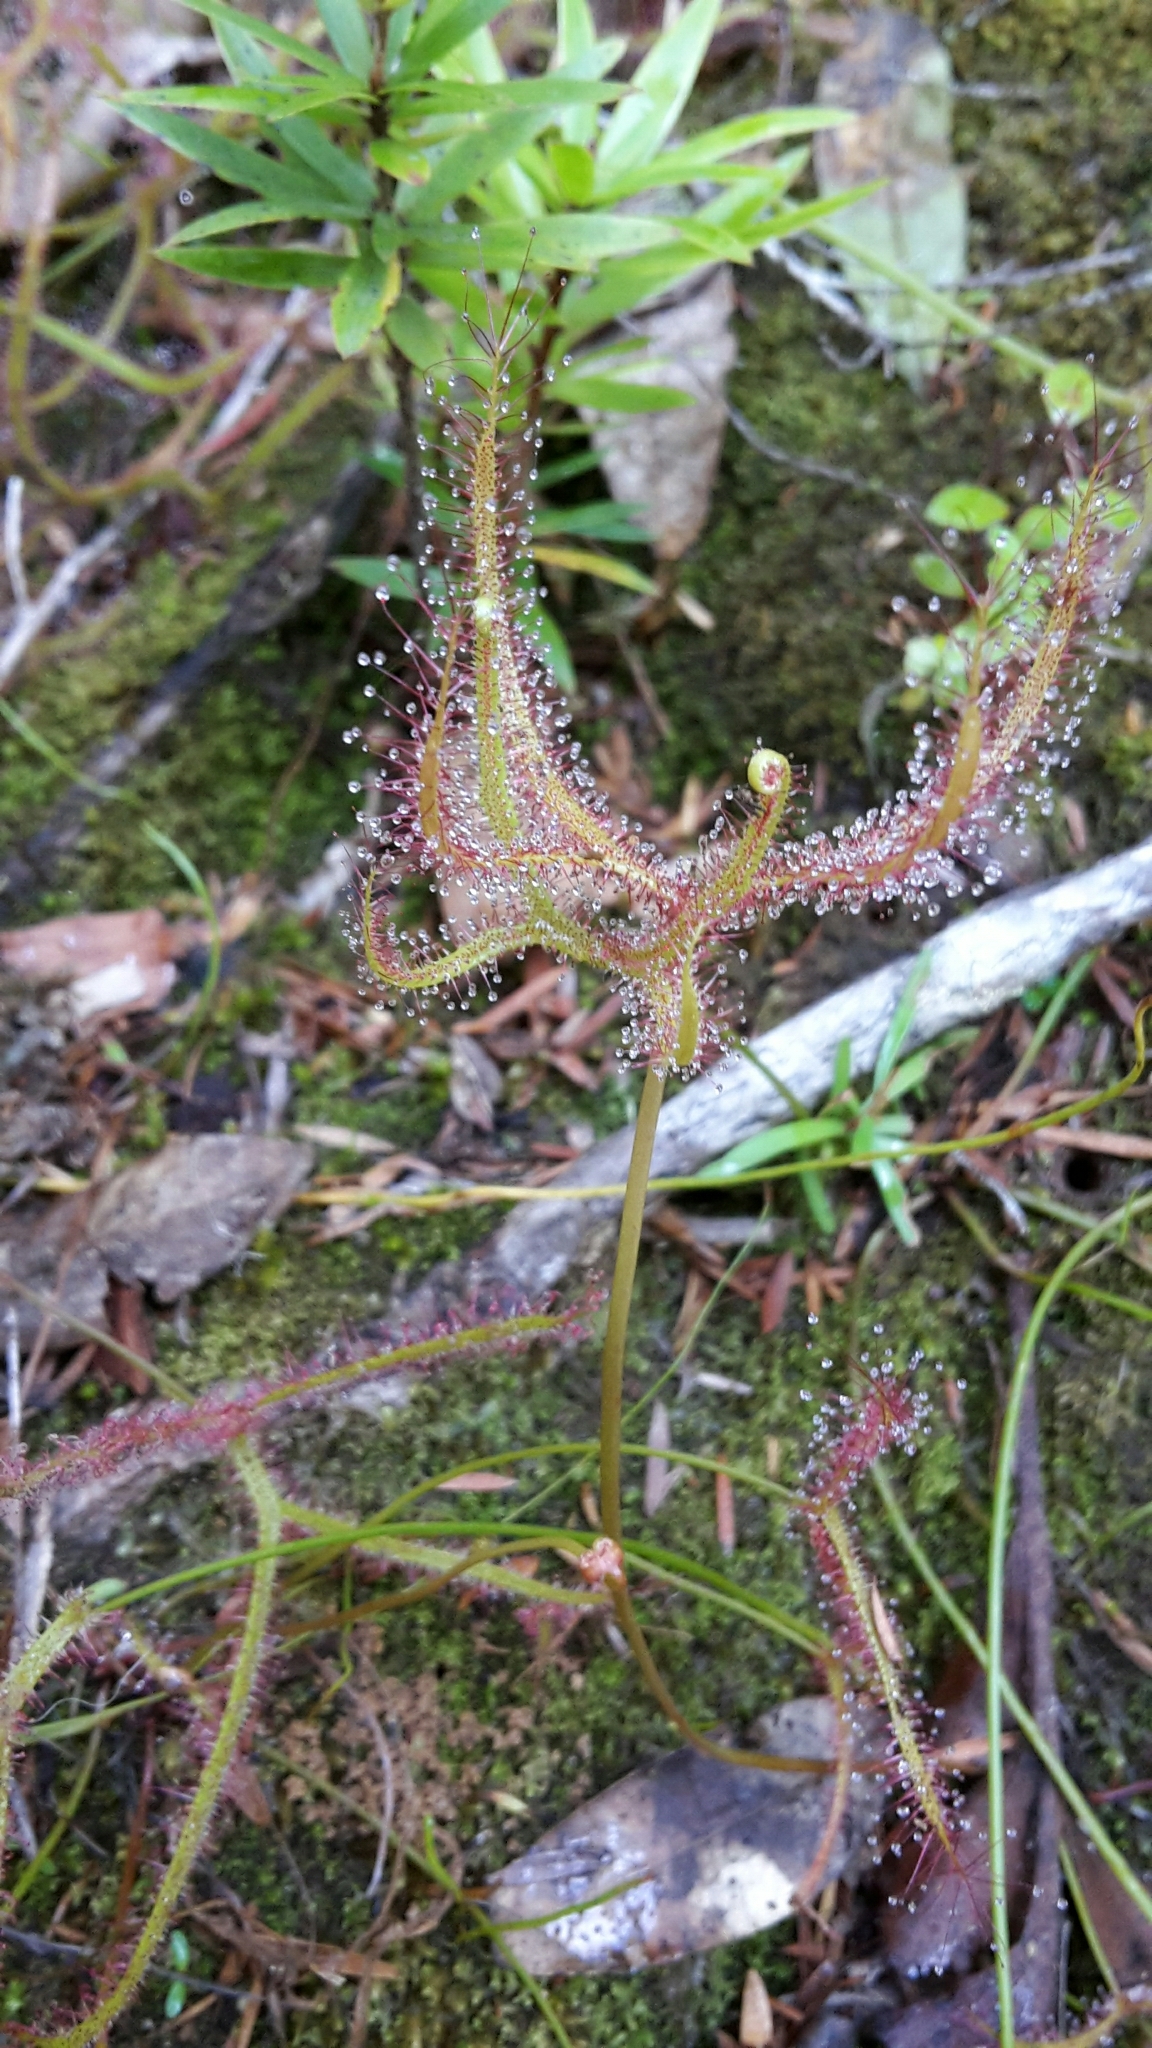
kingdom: Plantae
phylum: Tracheophyta
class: Magnoliopsida
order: Caryophyllales
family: Droseraceae
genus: Drosera
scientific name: Drosera binata
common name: Forked sundew
